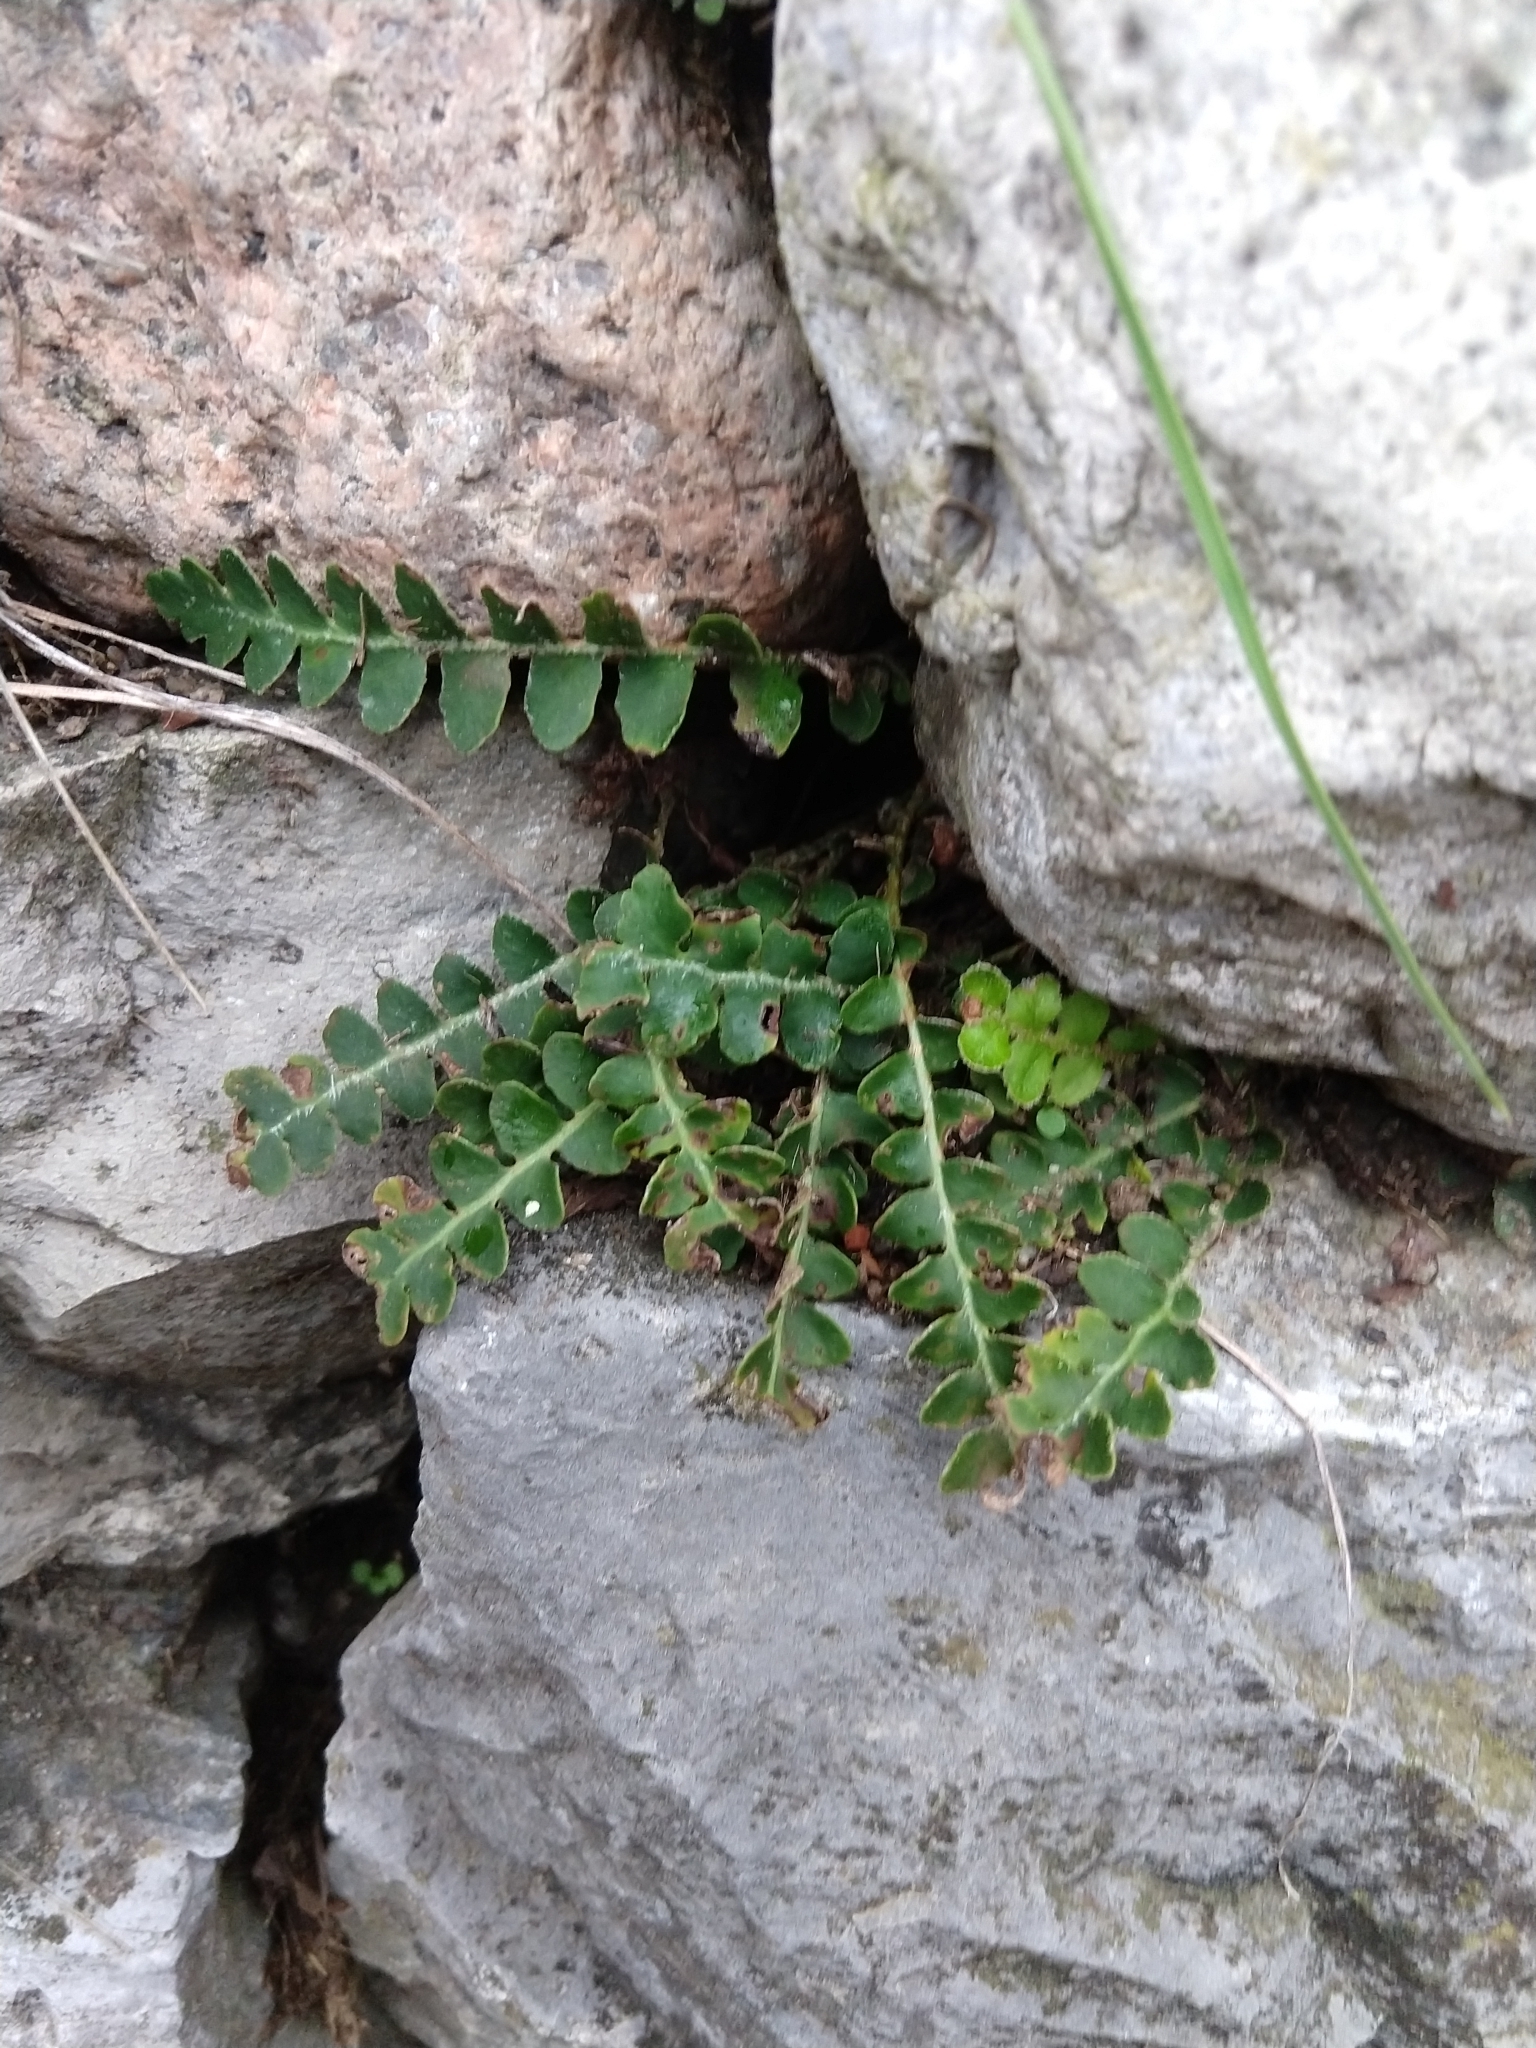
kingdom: Plantae
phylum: Tracheophyta
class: Polypodiopsida
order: Polypodiales
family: Aspleniaceae
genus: Asplenium
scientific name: Asplenium ceterach
